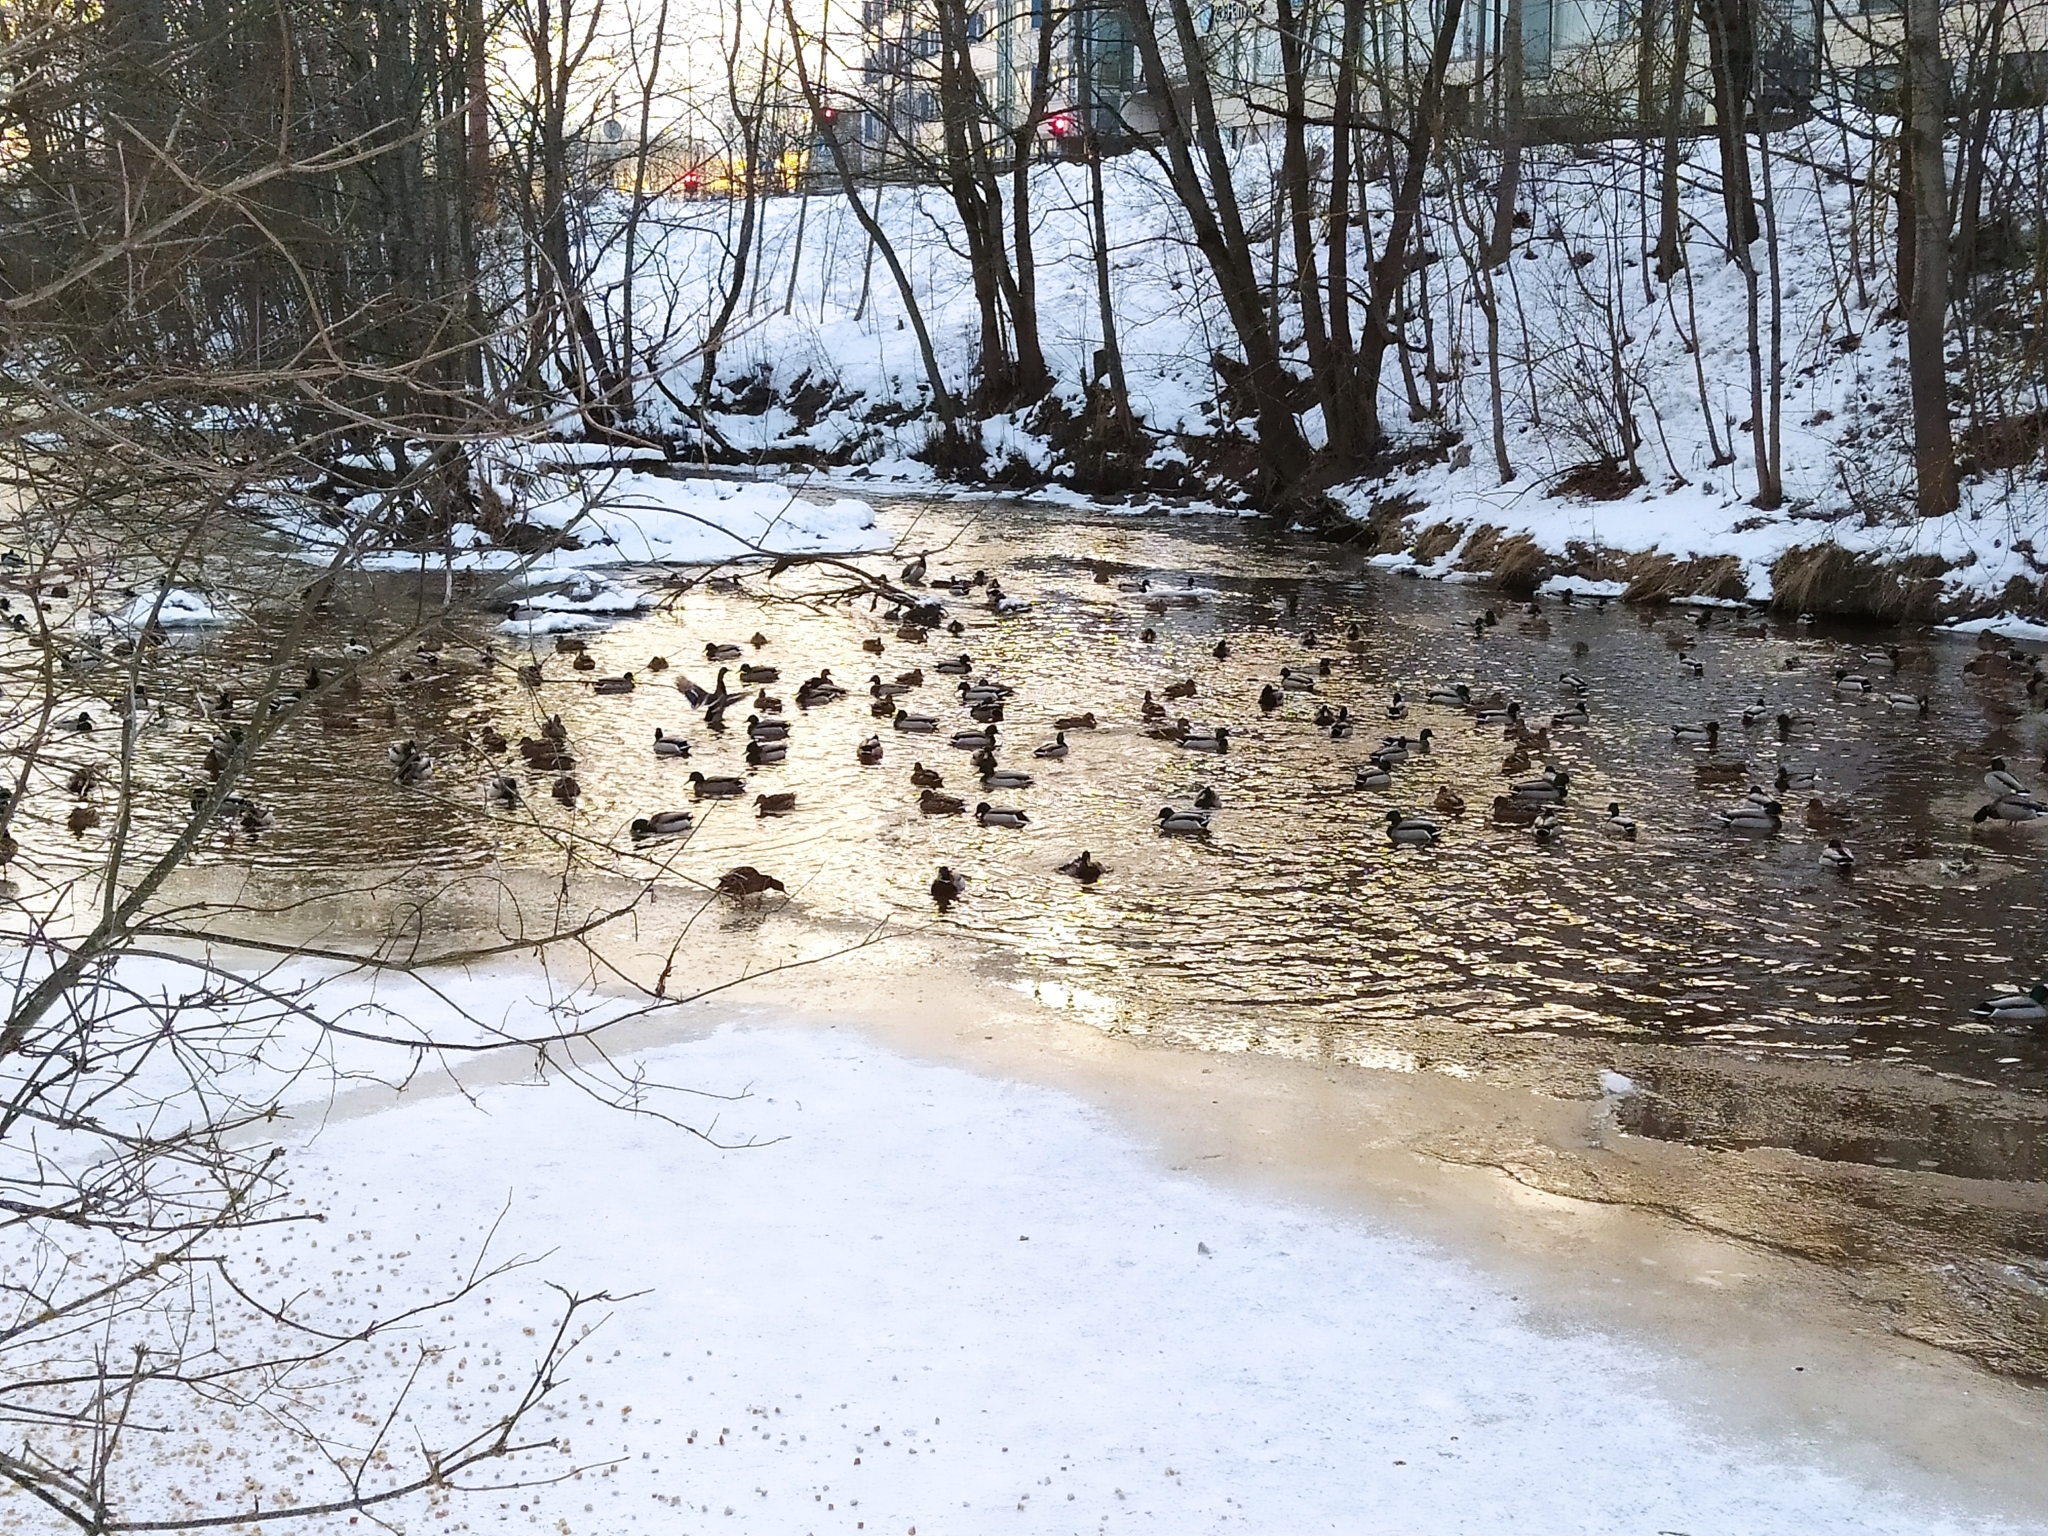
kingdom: Animalia
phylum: Chordata
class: Aves
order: Anseriformes
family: Anatidae
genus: Anas
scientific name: Anas platyrhynchos
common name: Mallard
